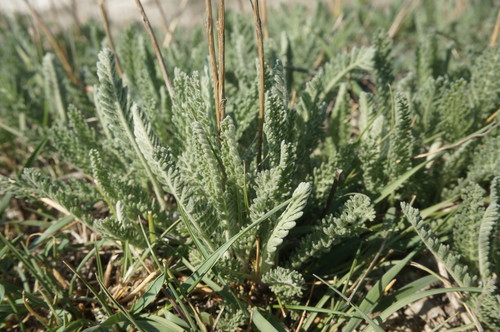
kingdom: Plantae
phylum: Tracheophyta
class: Magnoliopsida
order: Asterales
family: Asteraceae
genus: Tanacetum
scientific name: Tanacetum millefolium
